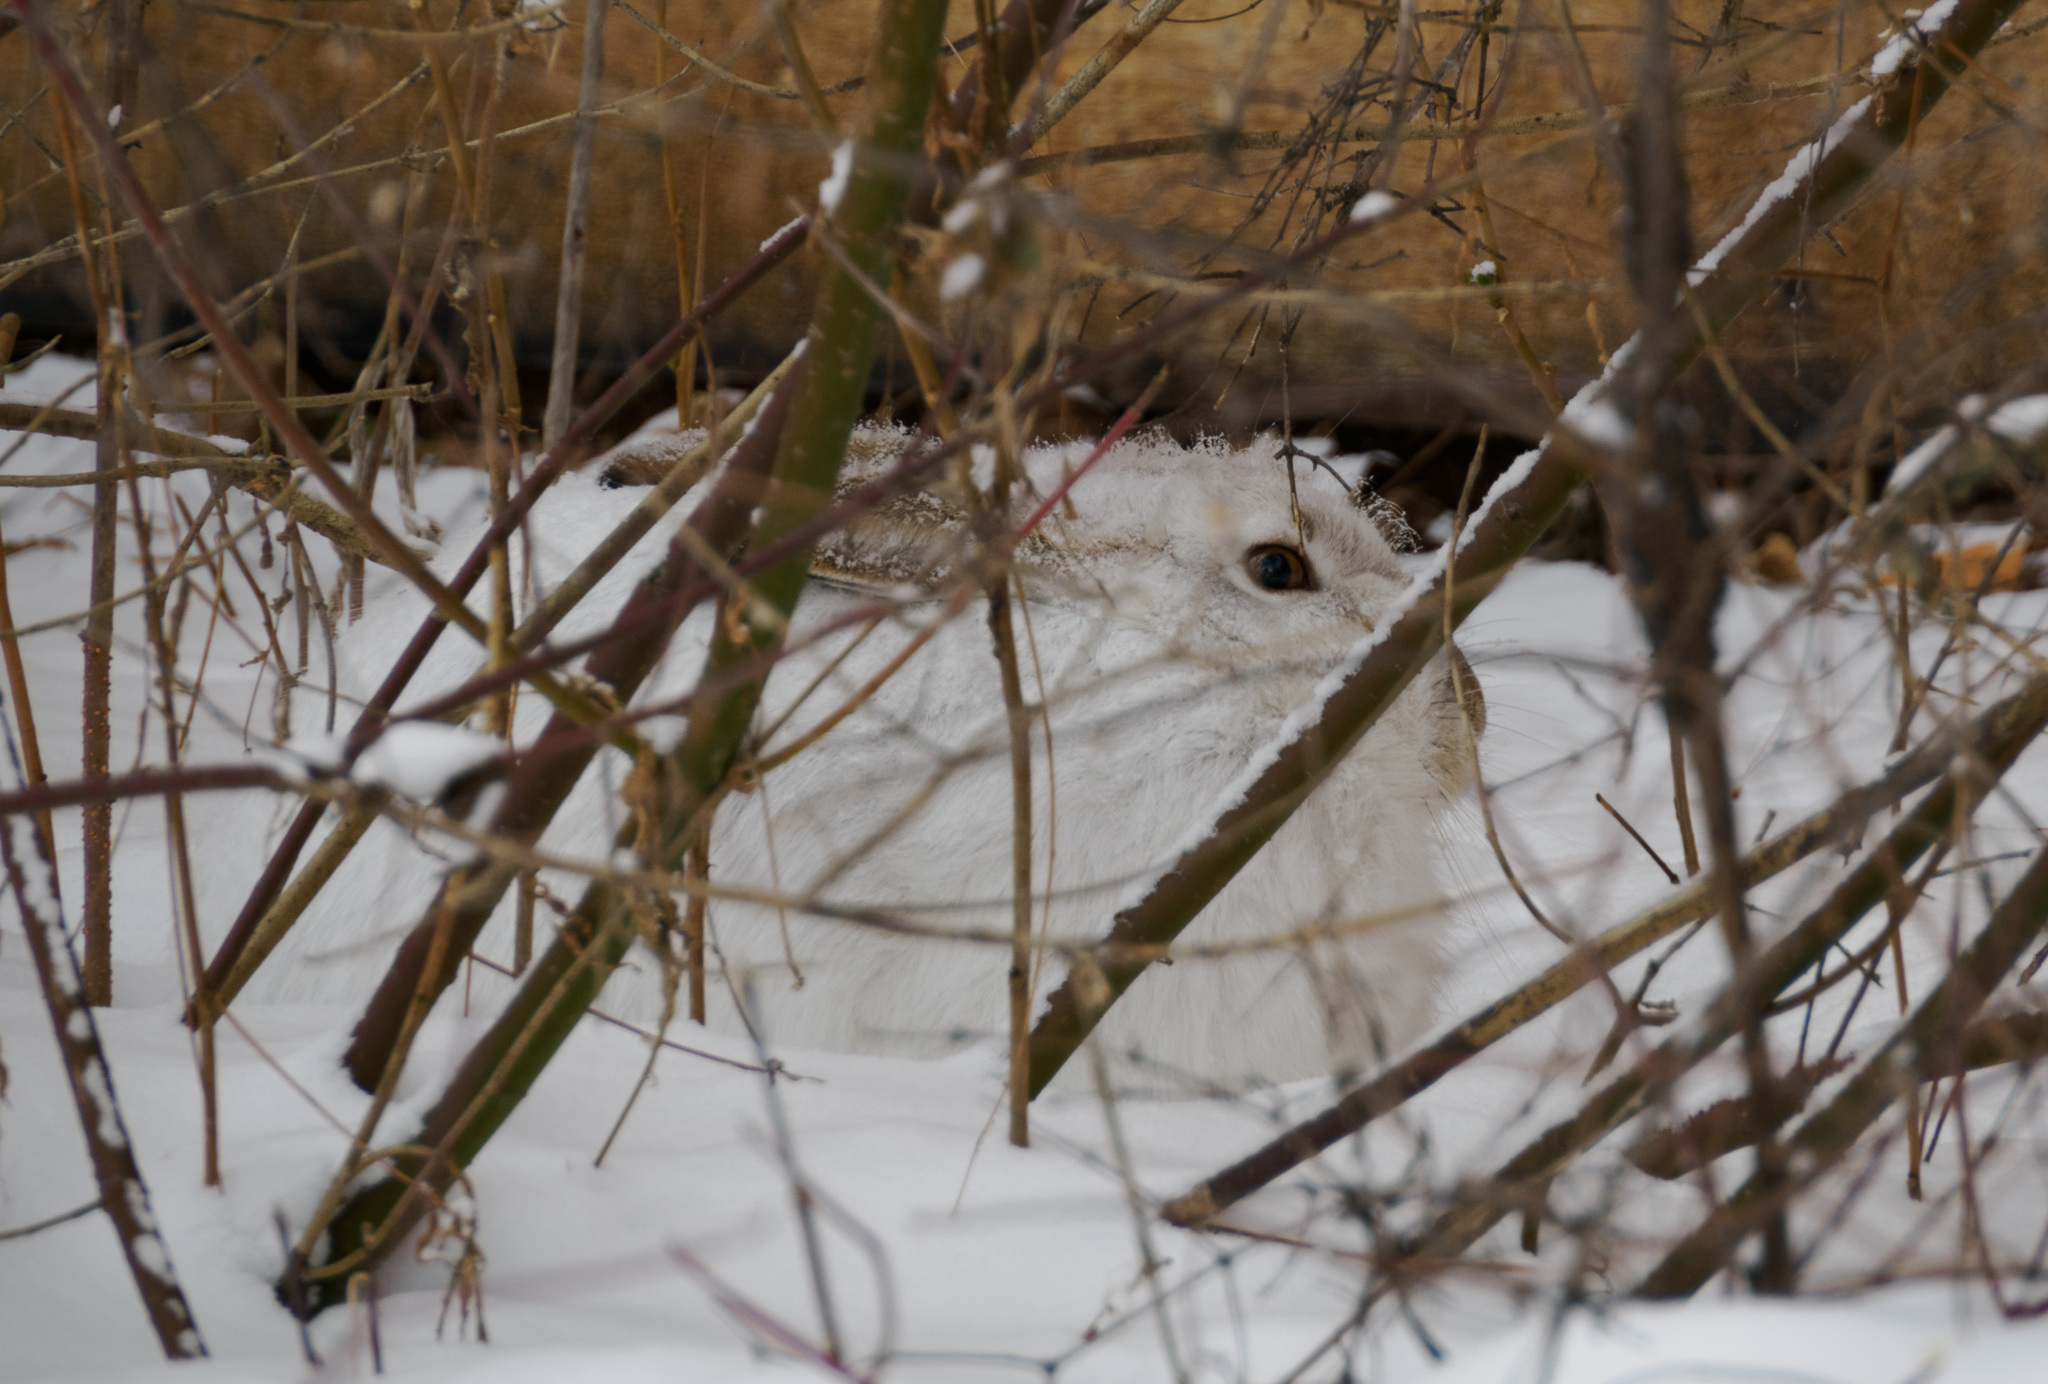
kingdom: Animalia
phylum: Chordata
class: Mammalia
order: Lagomorpha
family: Leporidae
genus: Lepus
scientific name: Lepus townsendii
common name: White-tailed jackrabbit
